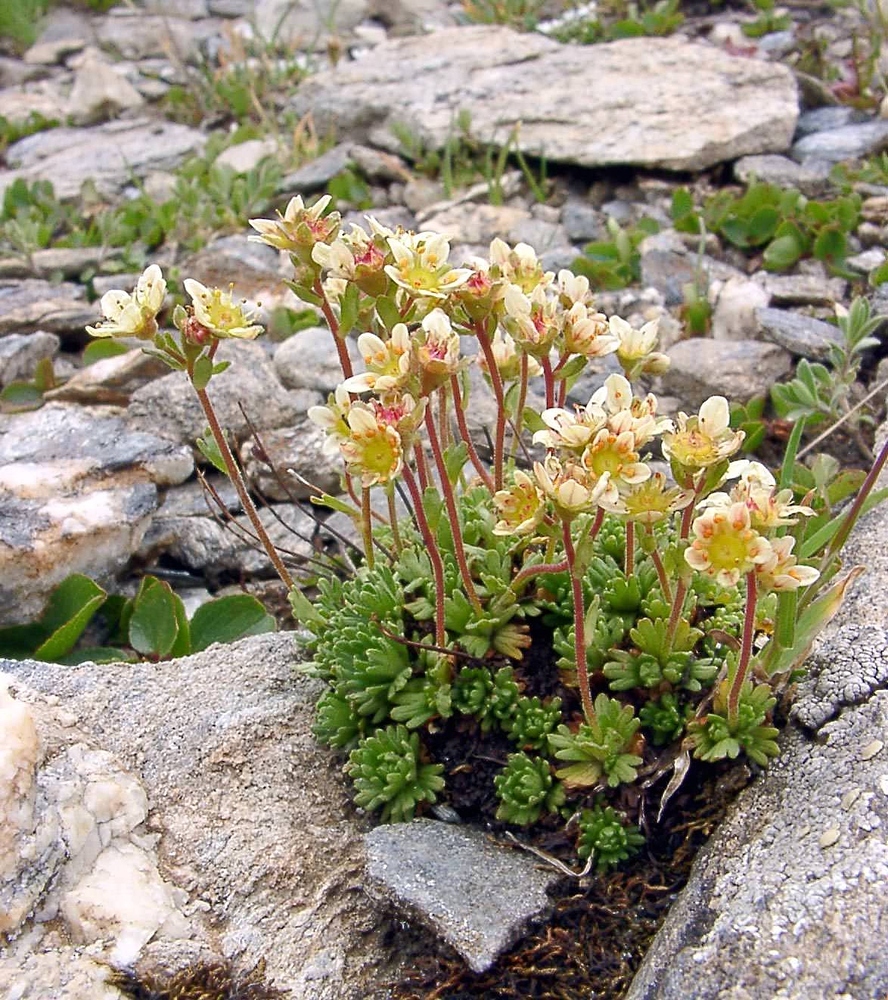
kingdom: Plantae
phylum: Tracheophyta
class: Magnoliopsida
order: Saxifragales
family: Saxifragaceae
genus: Saxifraga
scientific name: Saxifraga exarata
